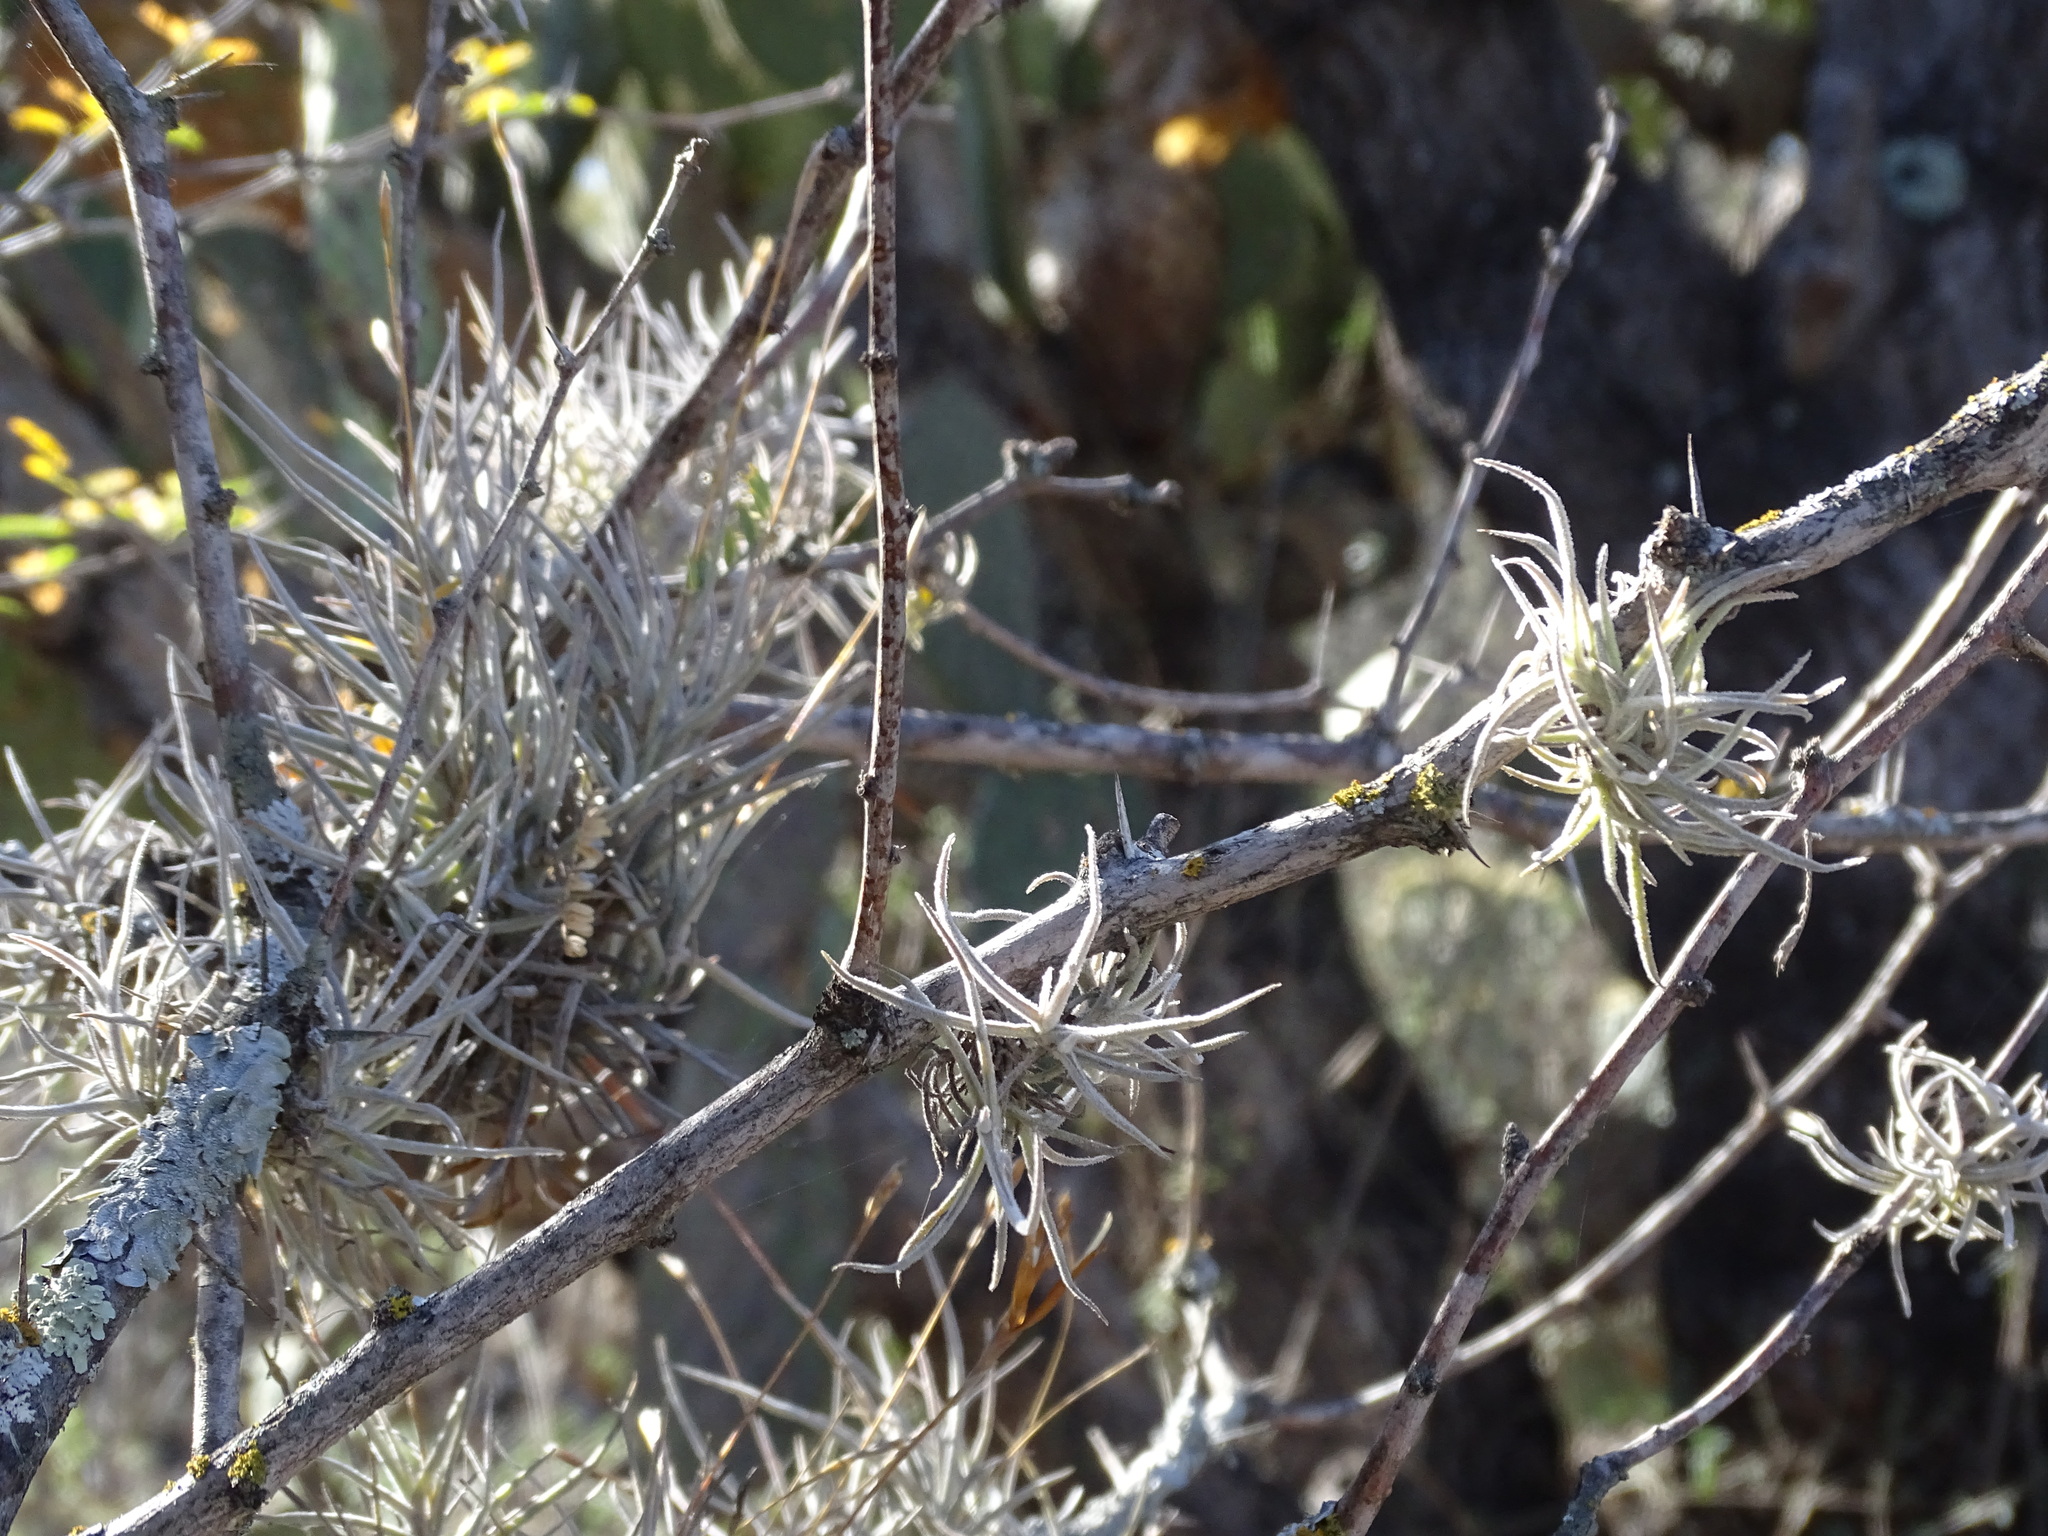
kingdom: Plantae
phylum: Tracheophyta
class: Liliopsida
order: Poales
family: Bromeliaceae
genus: Tillandsia
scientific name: Tillandsia recurvata
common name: Small ballmoss
